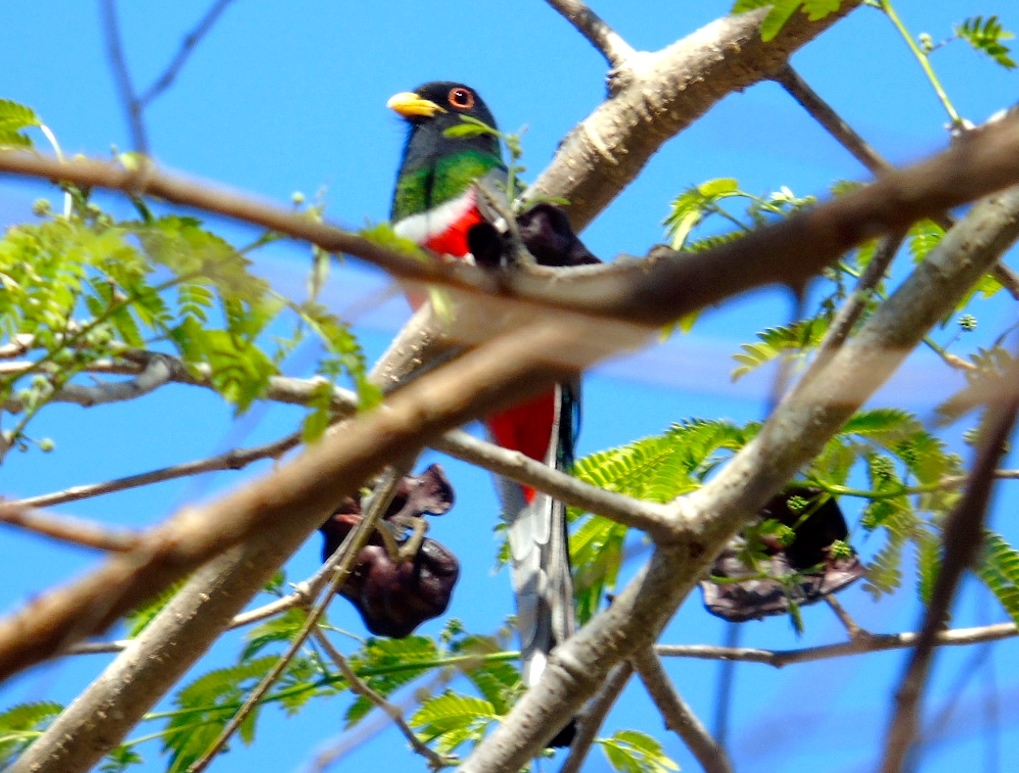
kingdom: Animalia
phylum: Chordata
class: Aves
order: Trogoniformes
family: Trogonidae
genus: Trogon
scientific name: Trogon elegans
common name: Elegant trogon
